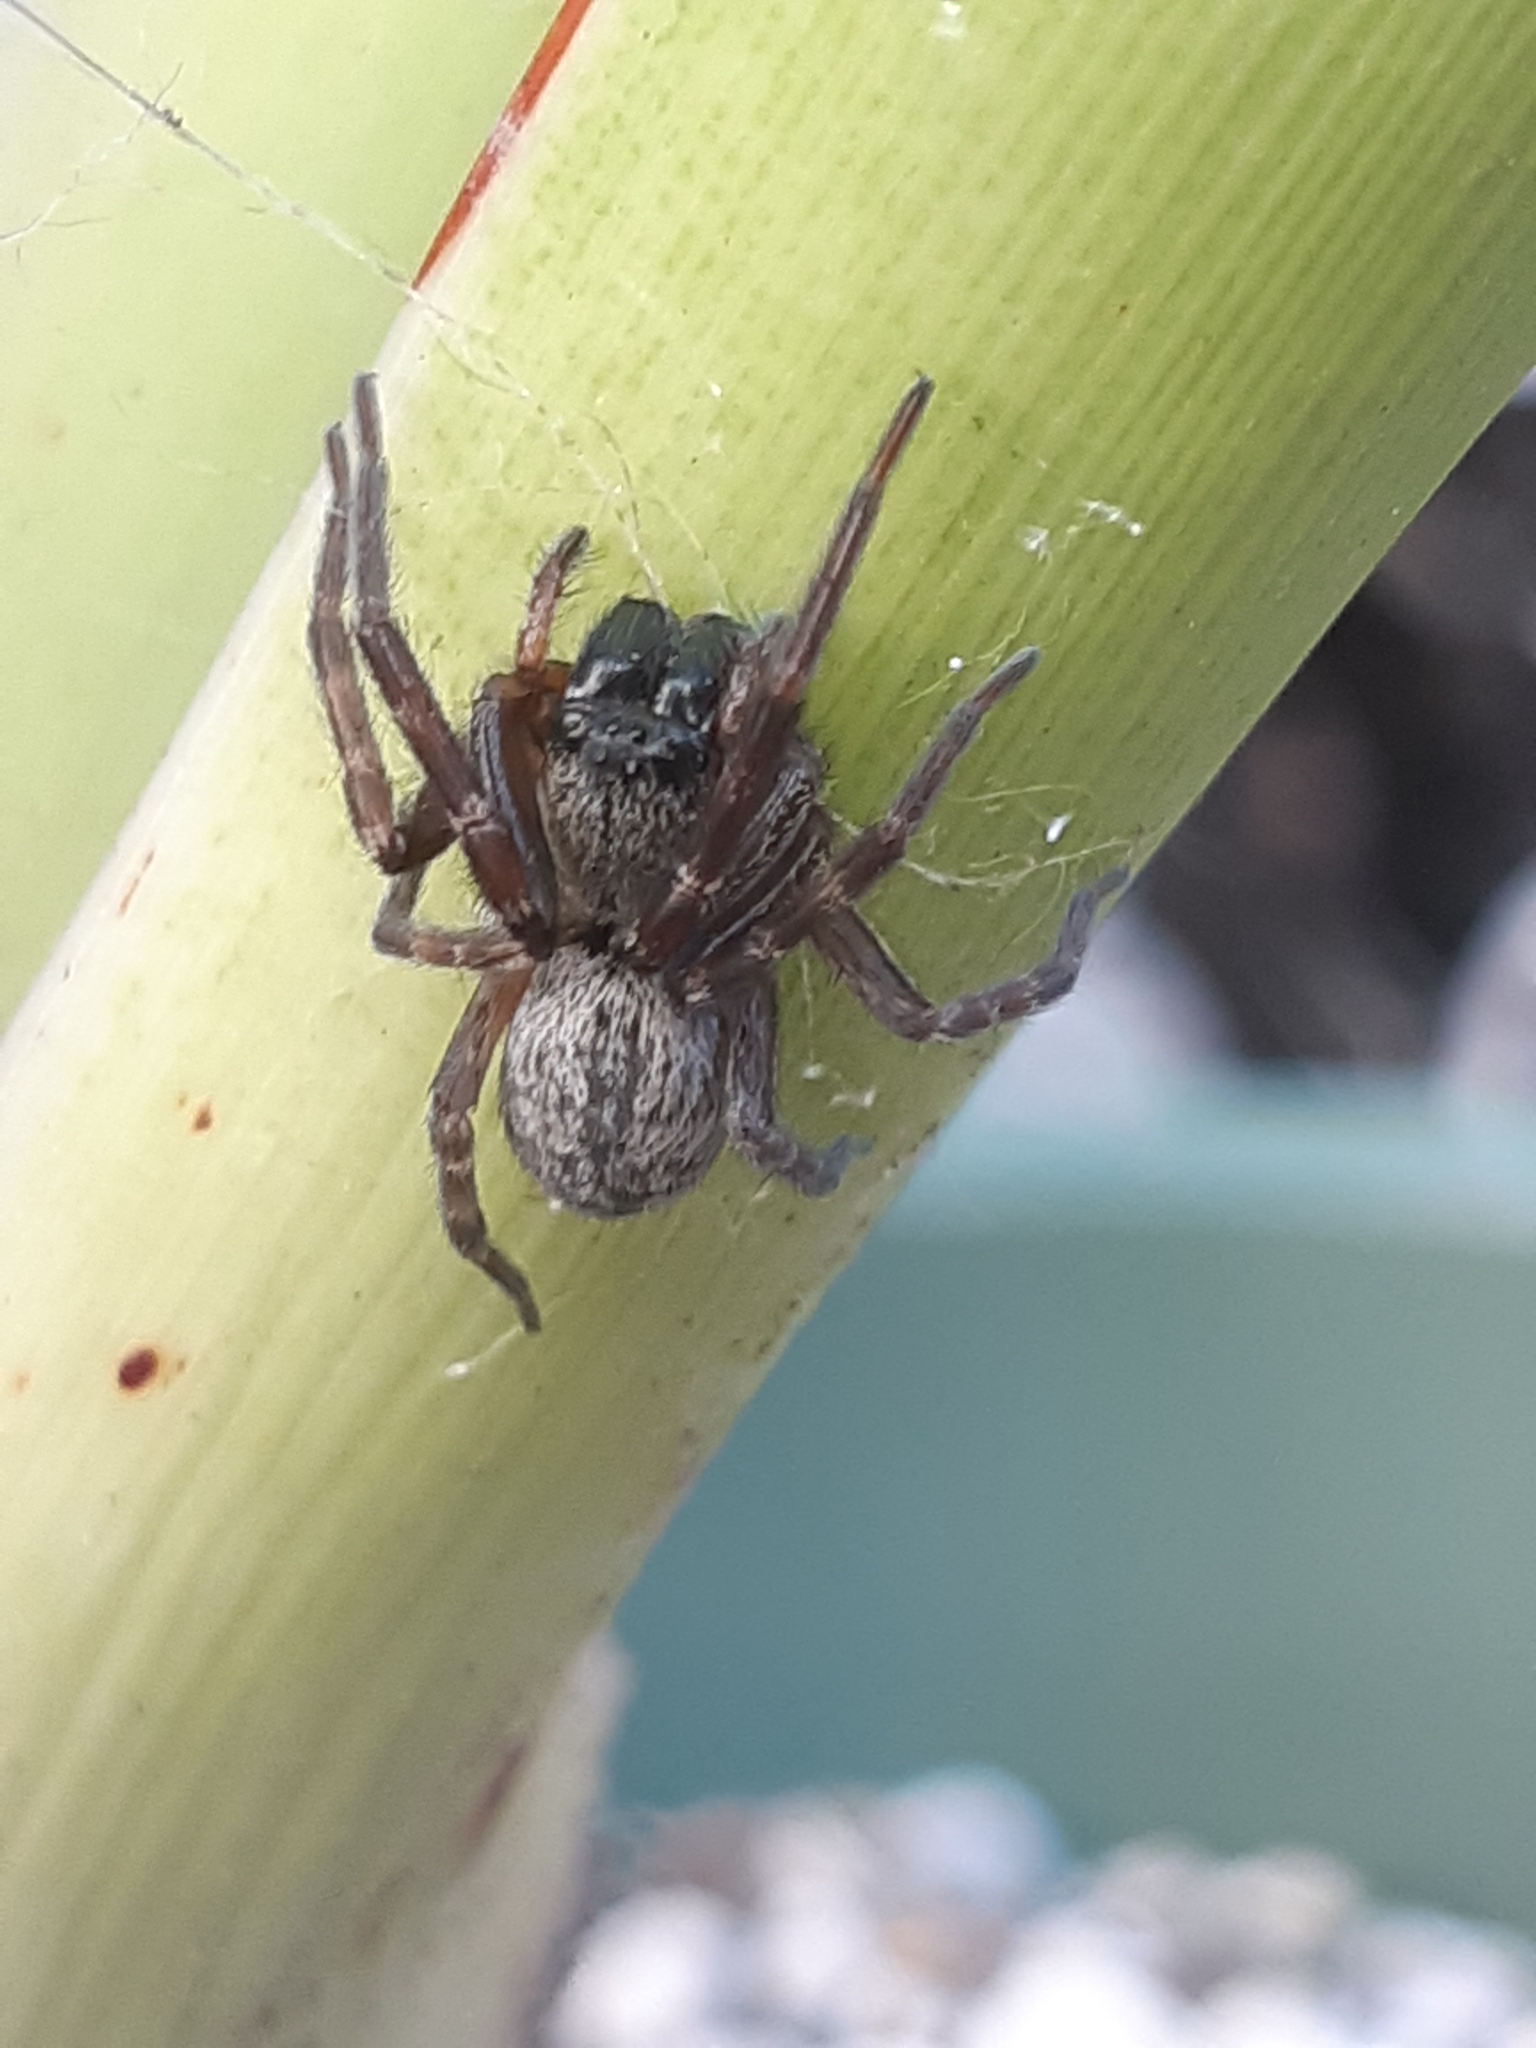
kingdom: Animalia
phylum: Arthropoda
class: Arachnida
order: Araneae
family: Desidae
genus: Badumna
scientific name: Badumna longinqua
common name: Gray house spider
